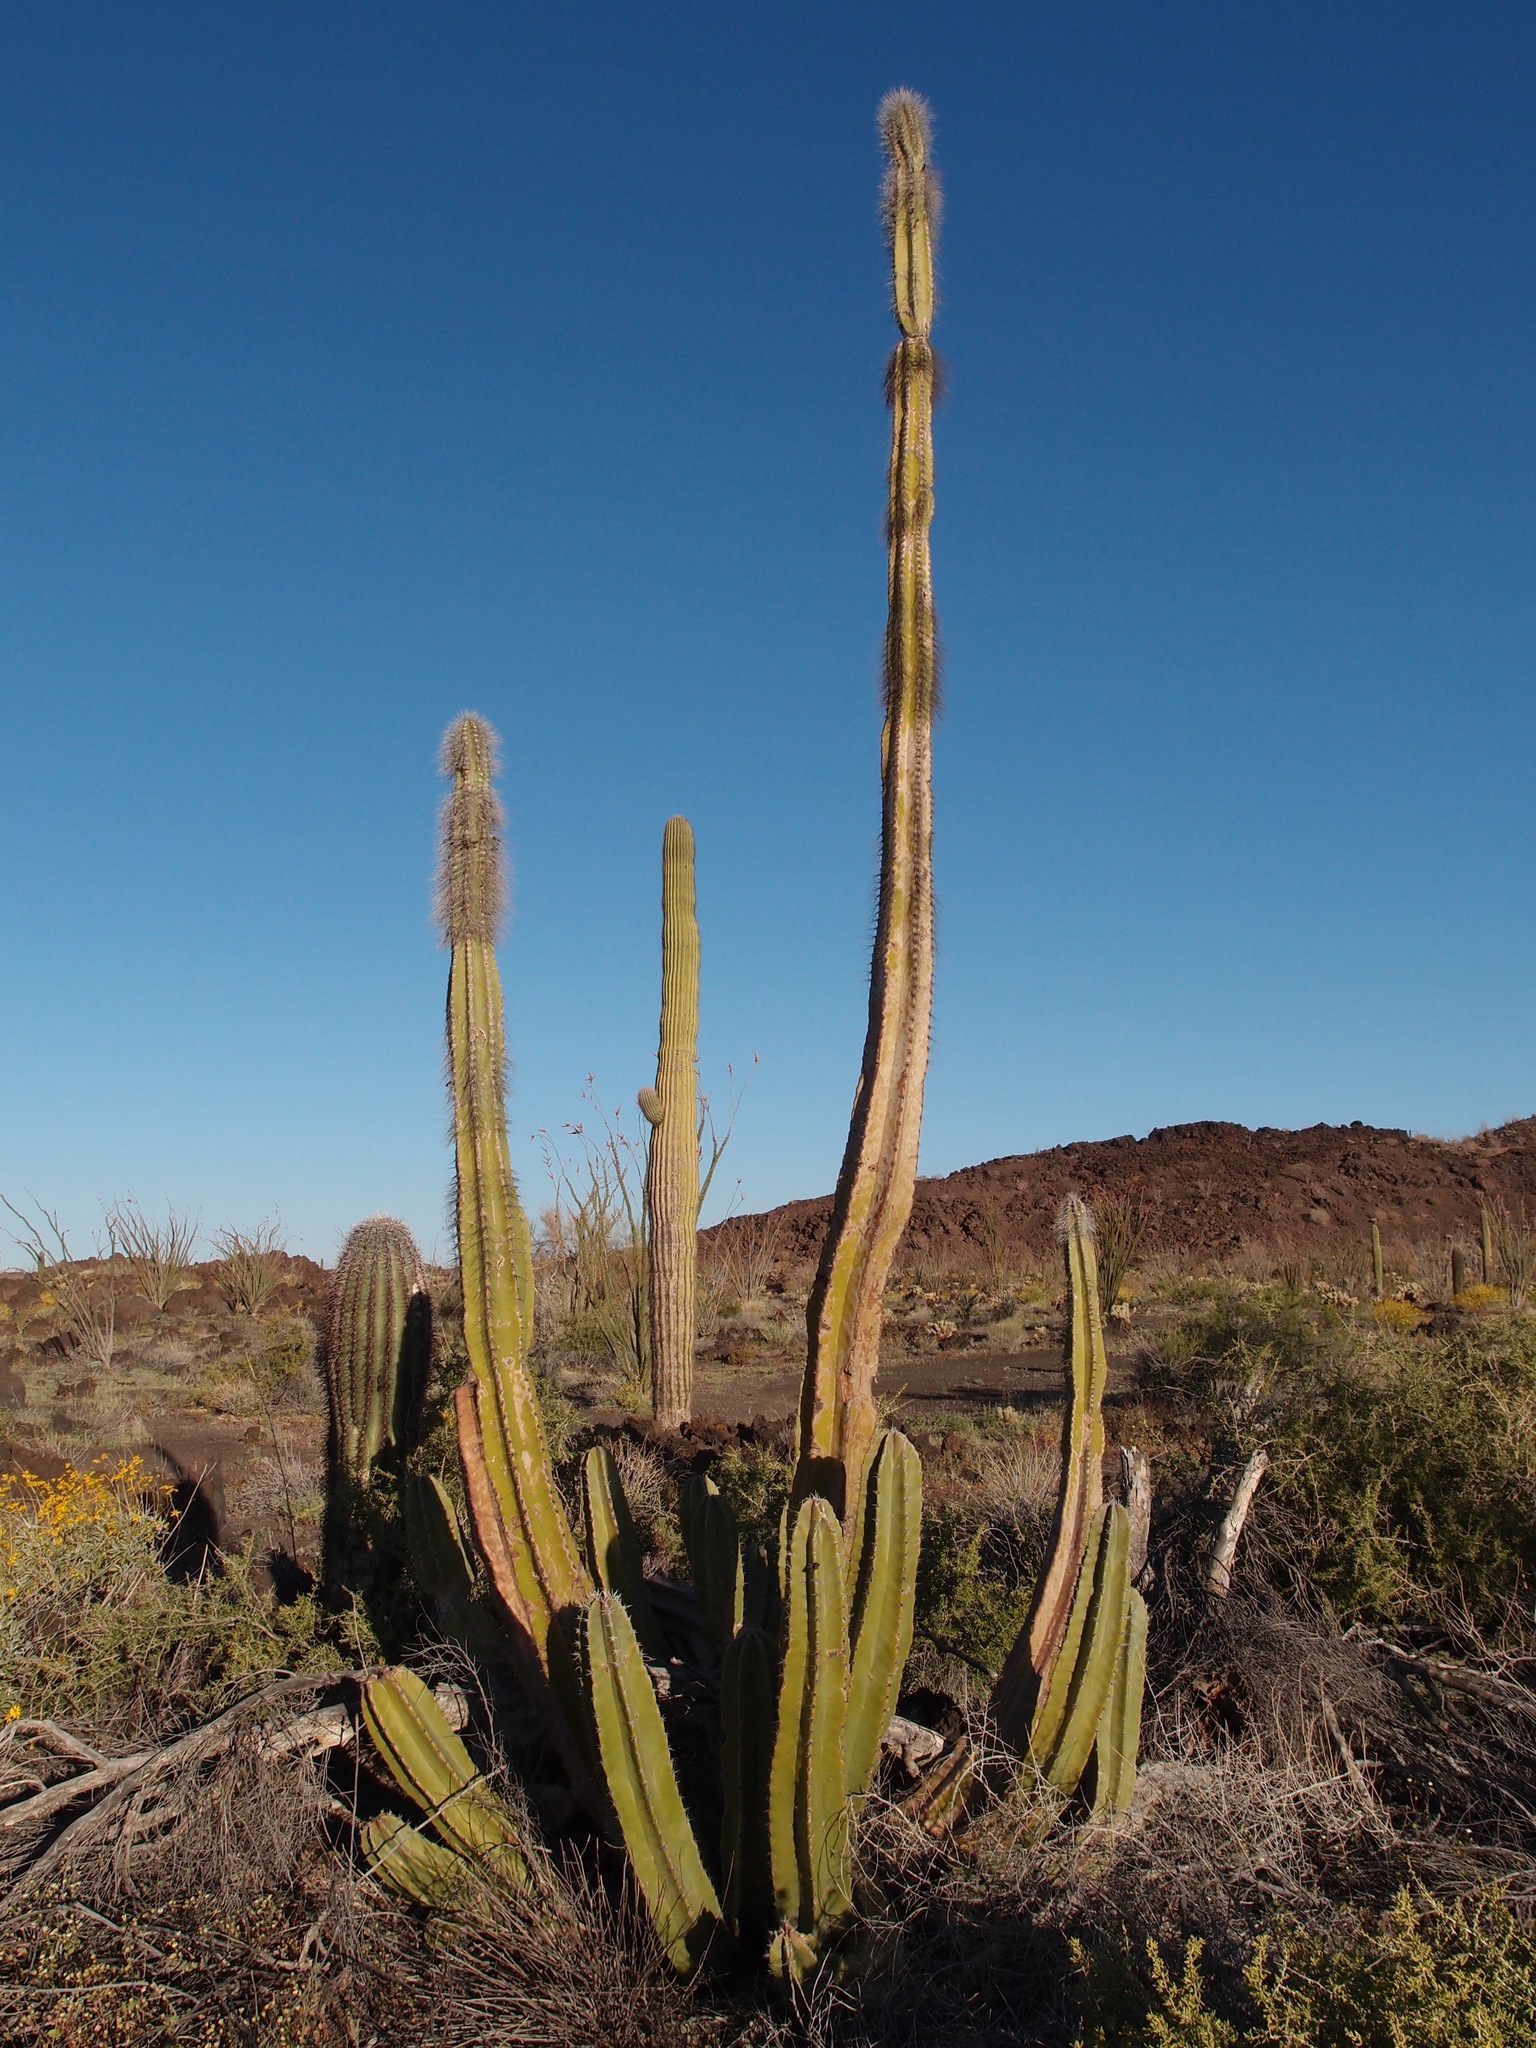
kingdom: Plantae
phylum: Tracheophyta
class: Magnoliopsida
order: Caryophyllales
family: Cactaceae
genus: Pachycereus
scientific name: Pachycereus schottii
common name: Senita cactus
